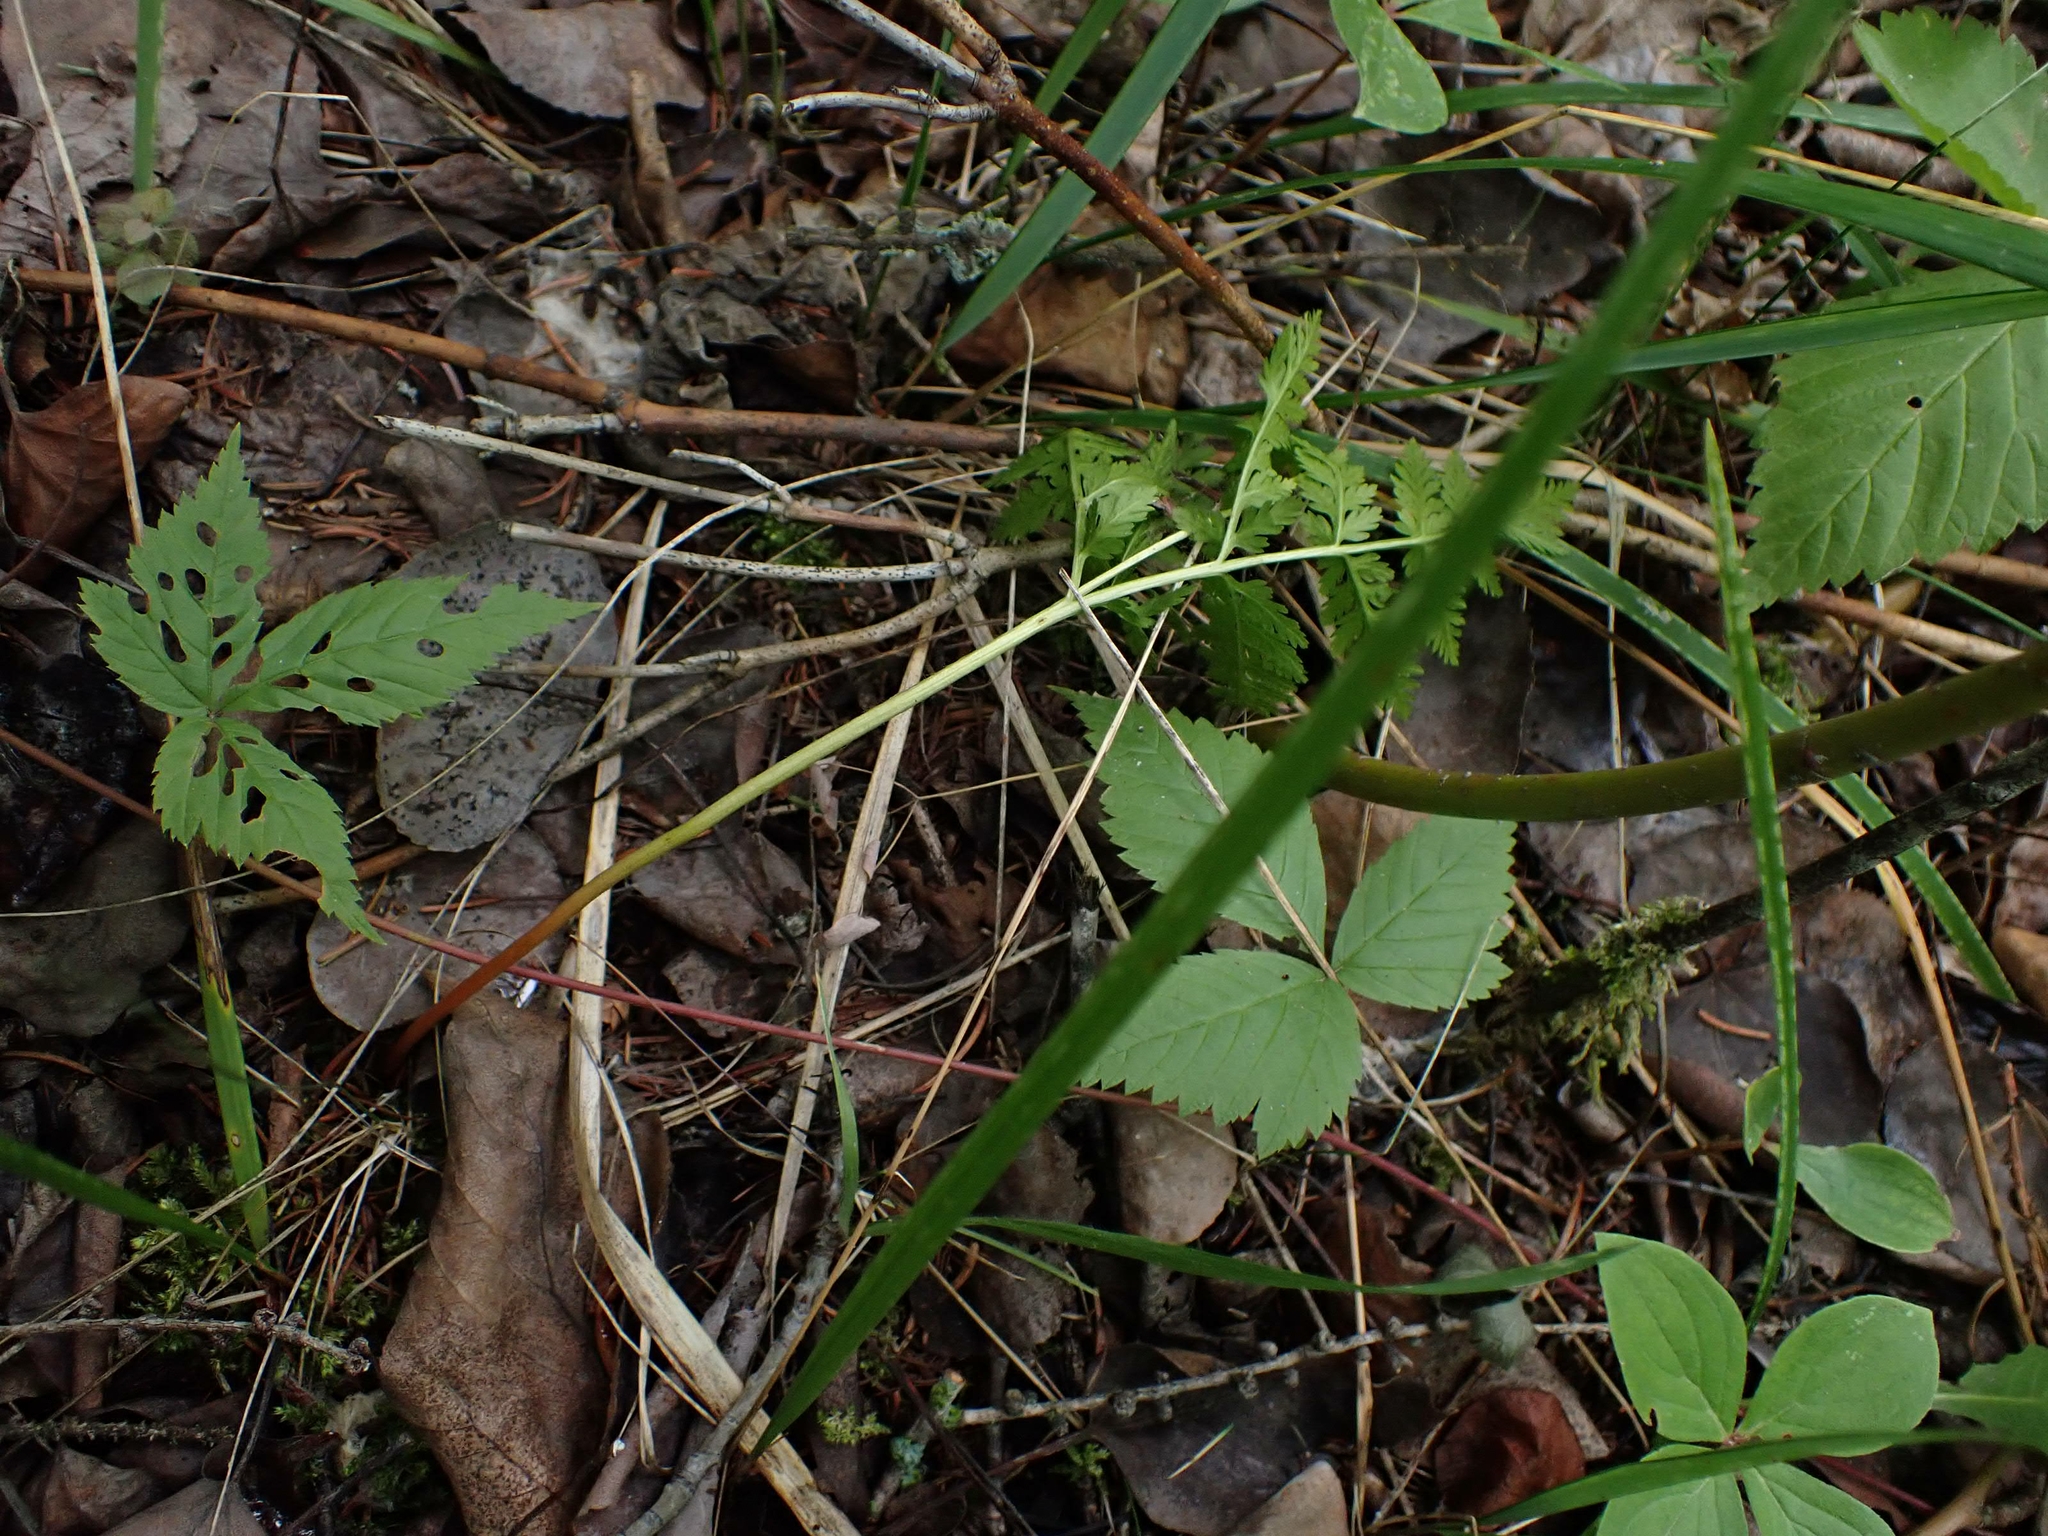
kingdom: Plantae
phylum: Tracheophyta
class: Polypodiopsida
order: Ophioglossales
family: Ophioglossaceae
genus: Botrypus
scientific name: Botrypus virginianus
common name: Common grapefern
